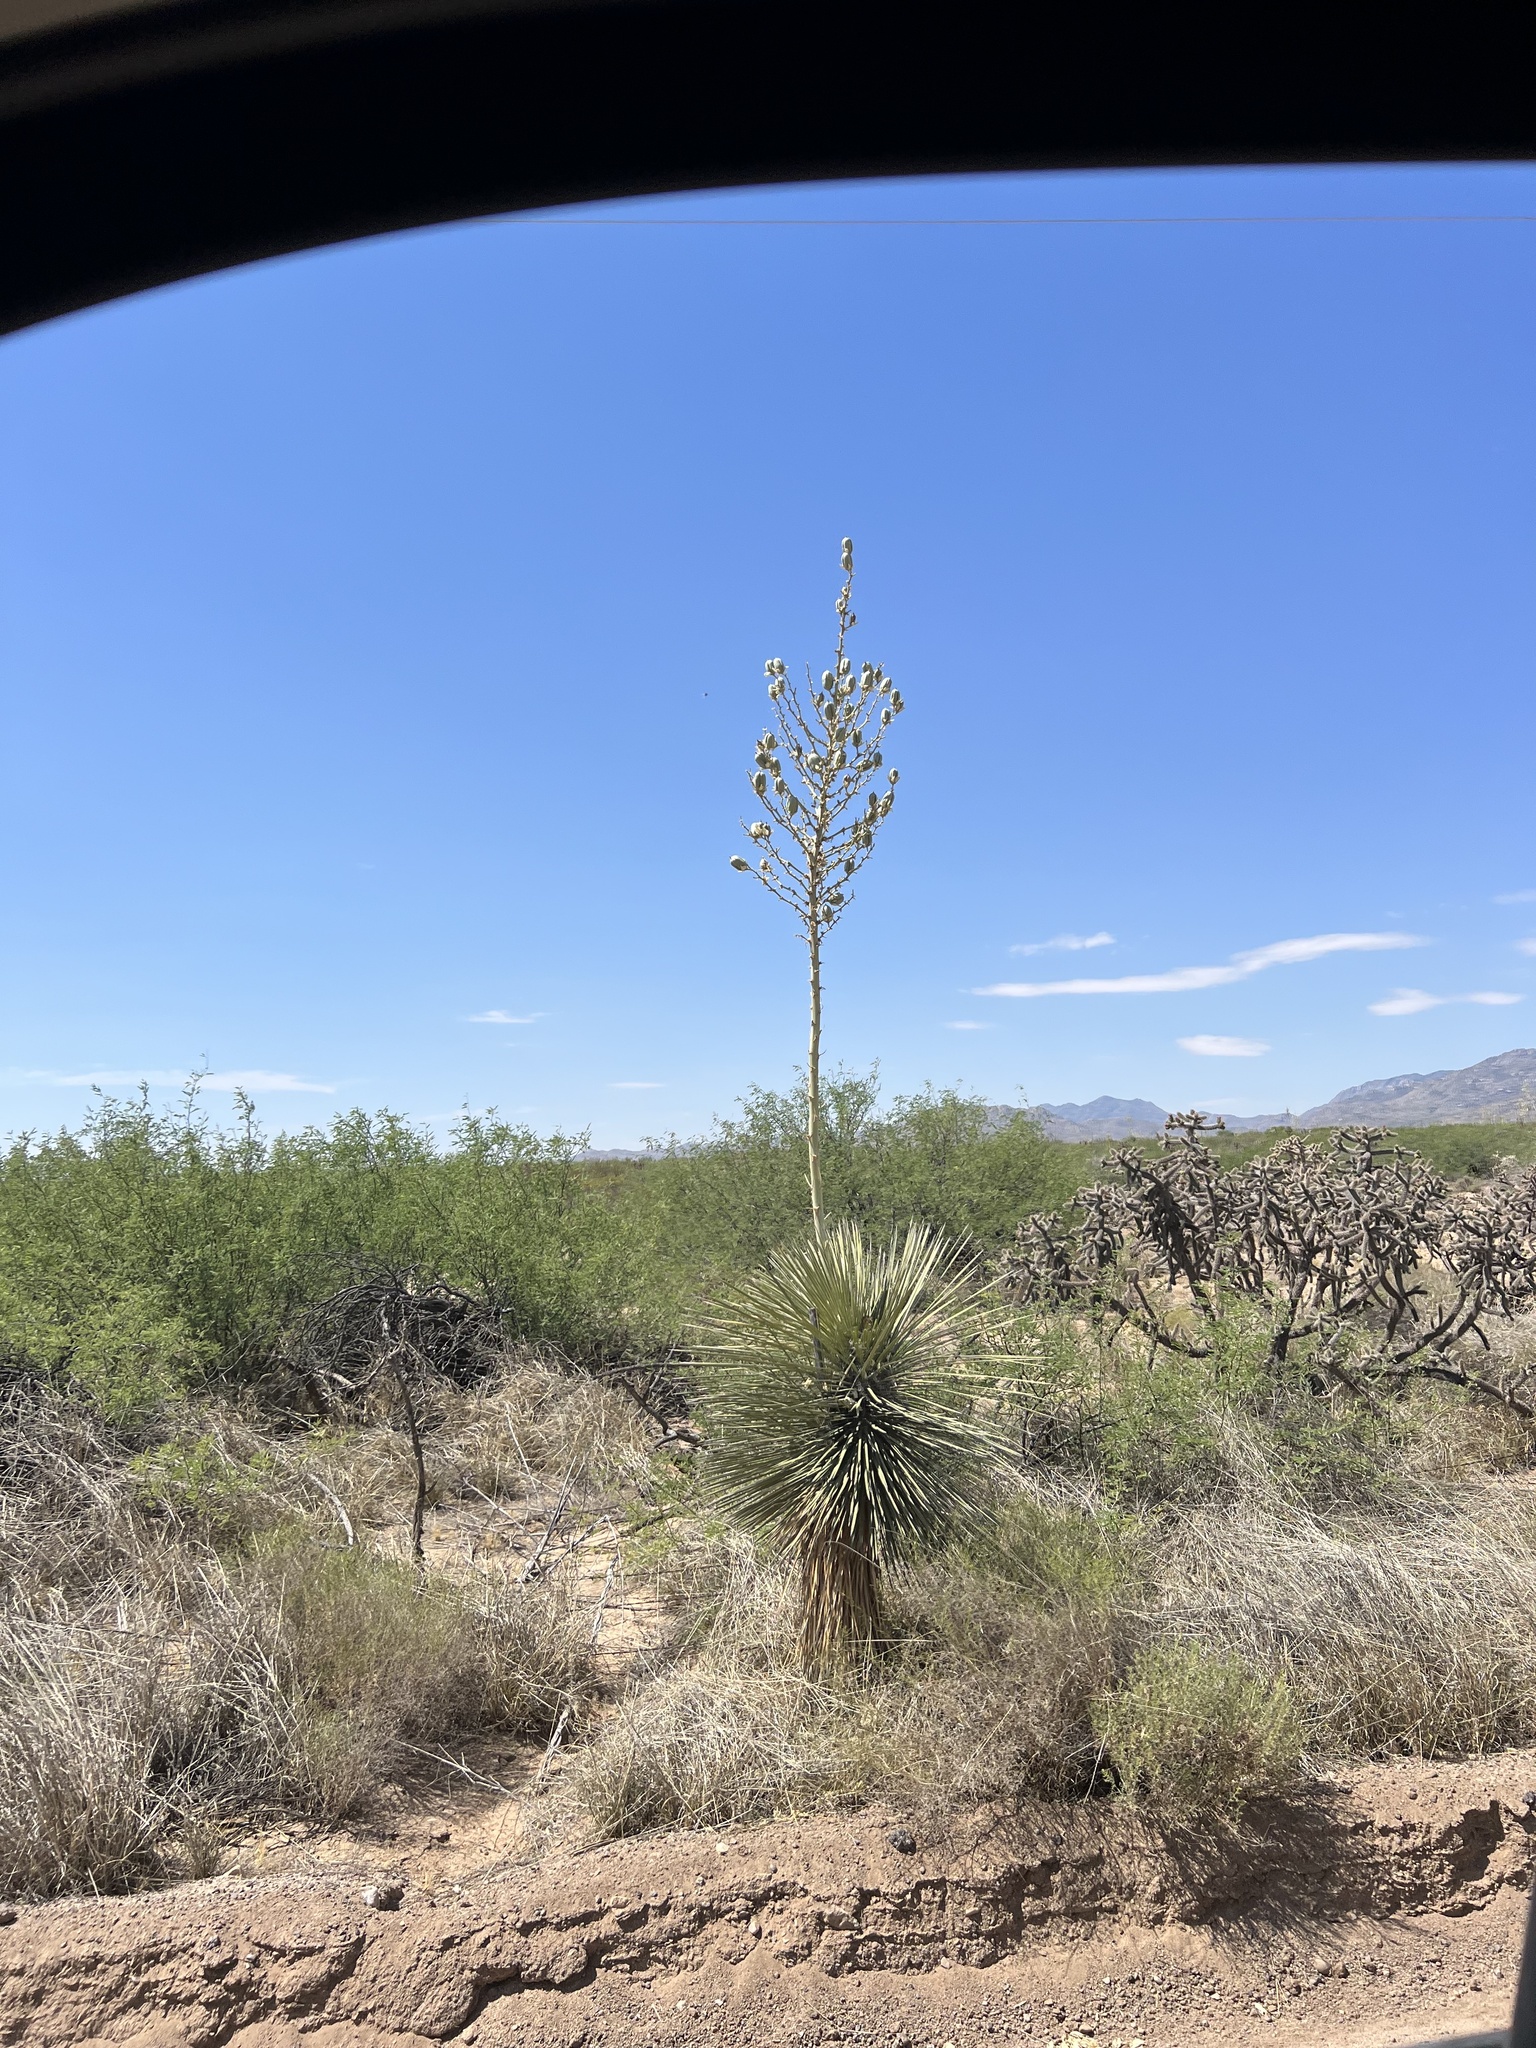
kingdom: Plantae
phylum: Tracheophyta
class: Liliopsida
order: Asparagales
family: Asparagaceae
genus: Yucca
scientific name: Yucca elata
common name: Palmella
